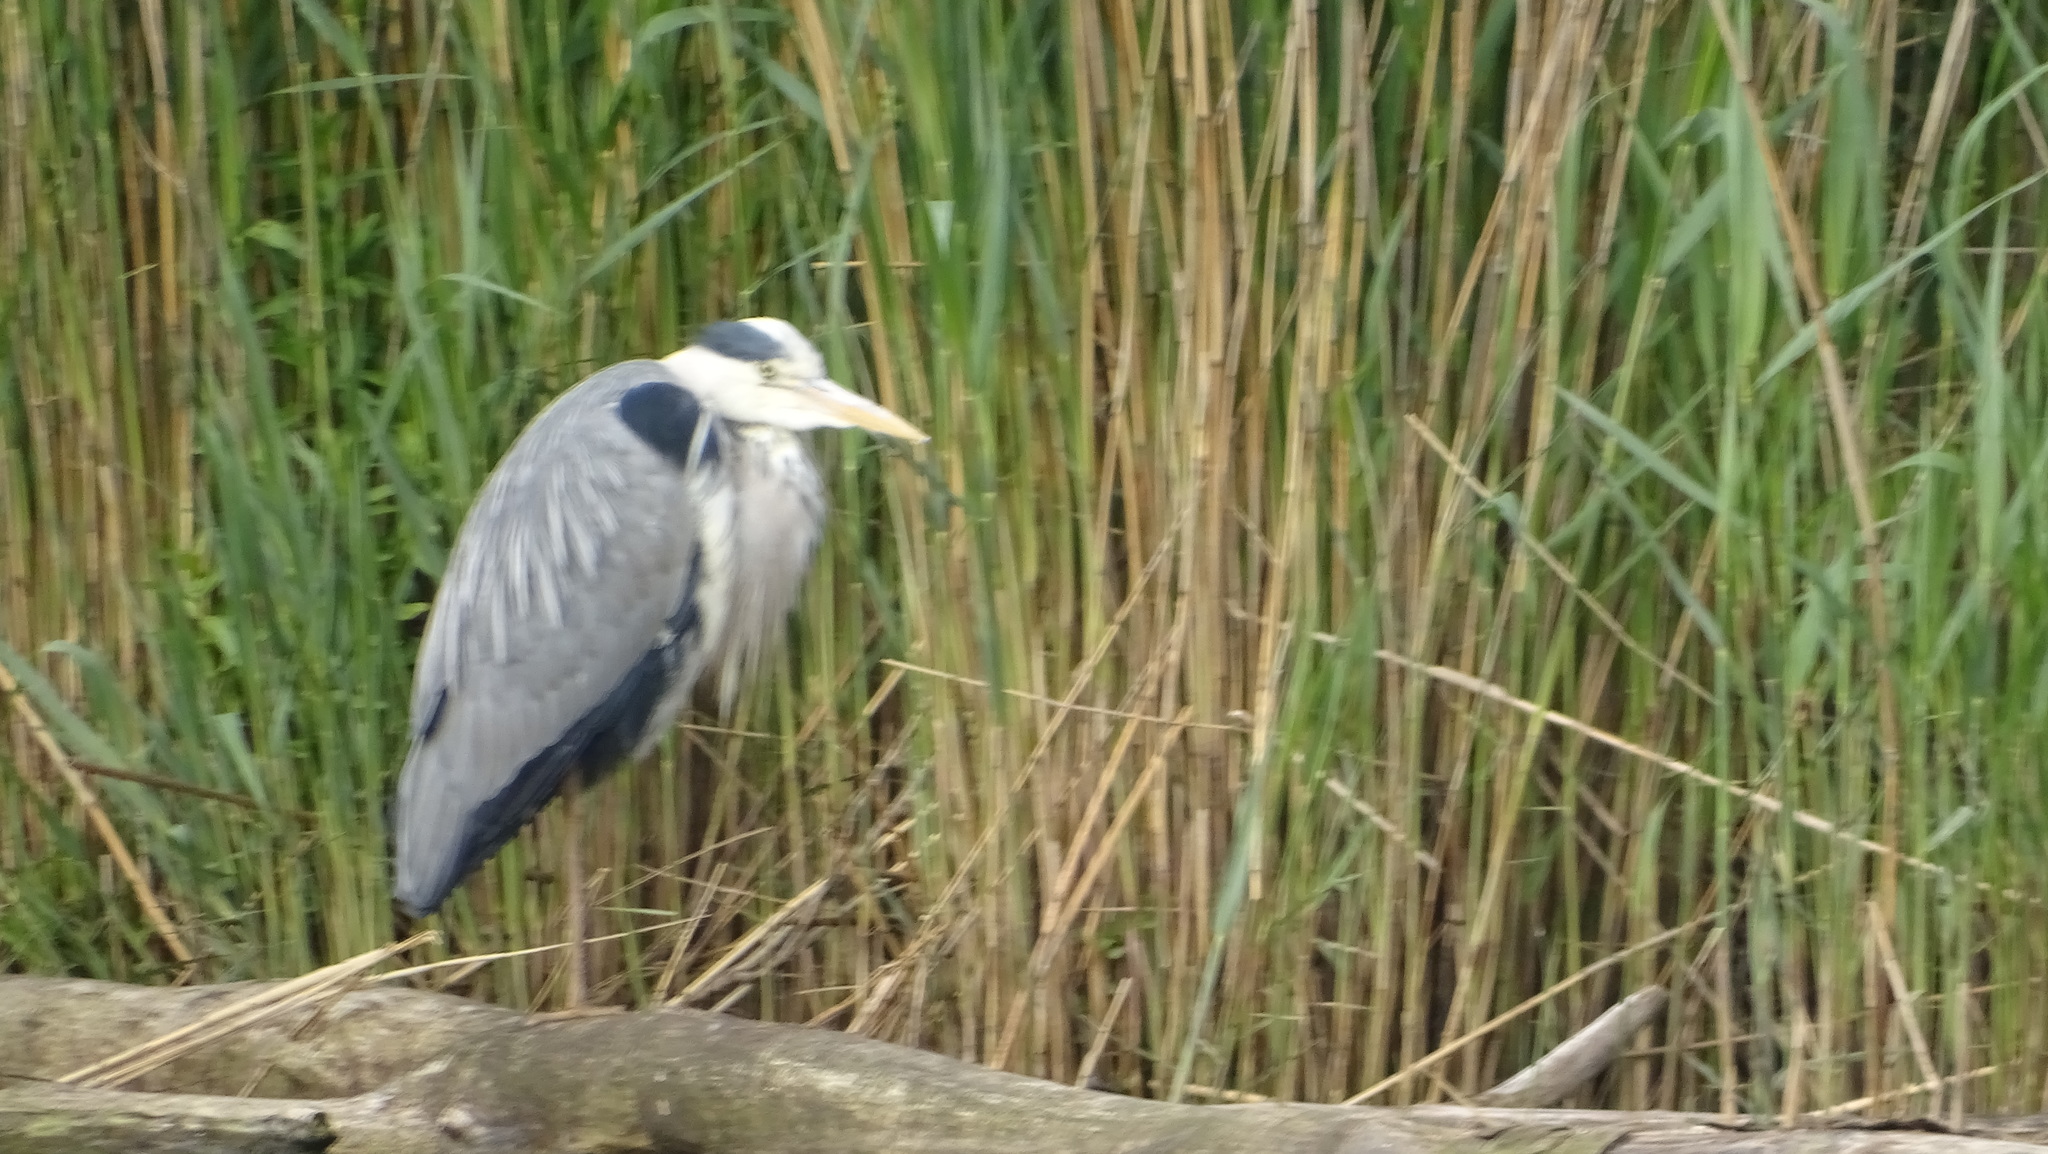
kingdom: Animalia
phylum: Chordata
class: Aves
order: Pelecaniformes
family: Ardeidae
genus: Ardea
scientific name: Ardea cinerea
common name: Grey heron
